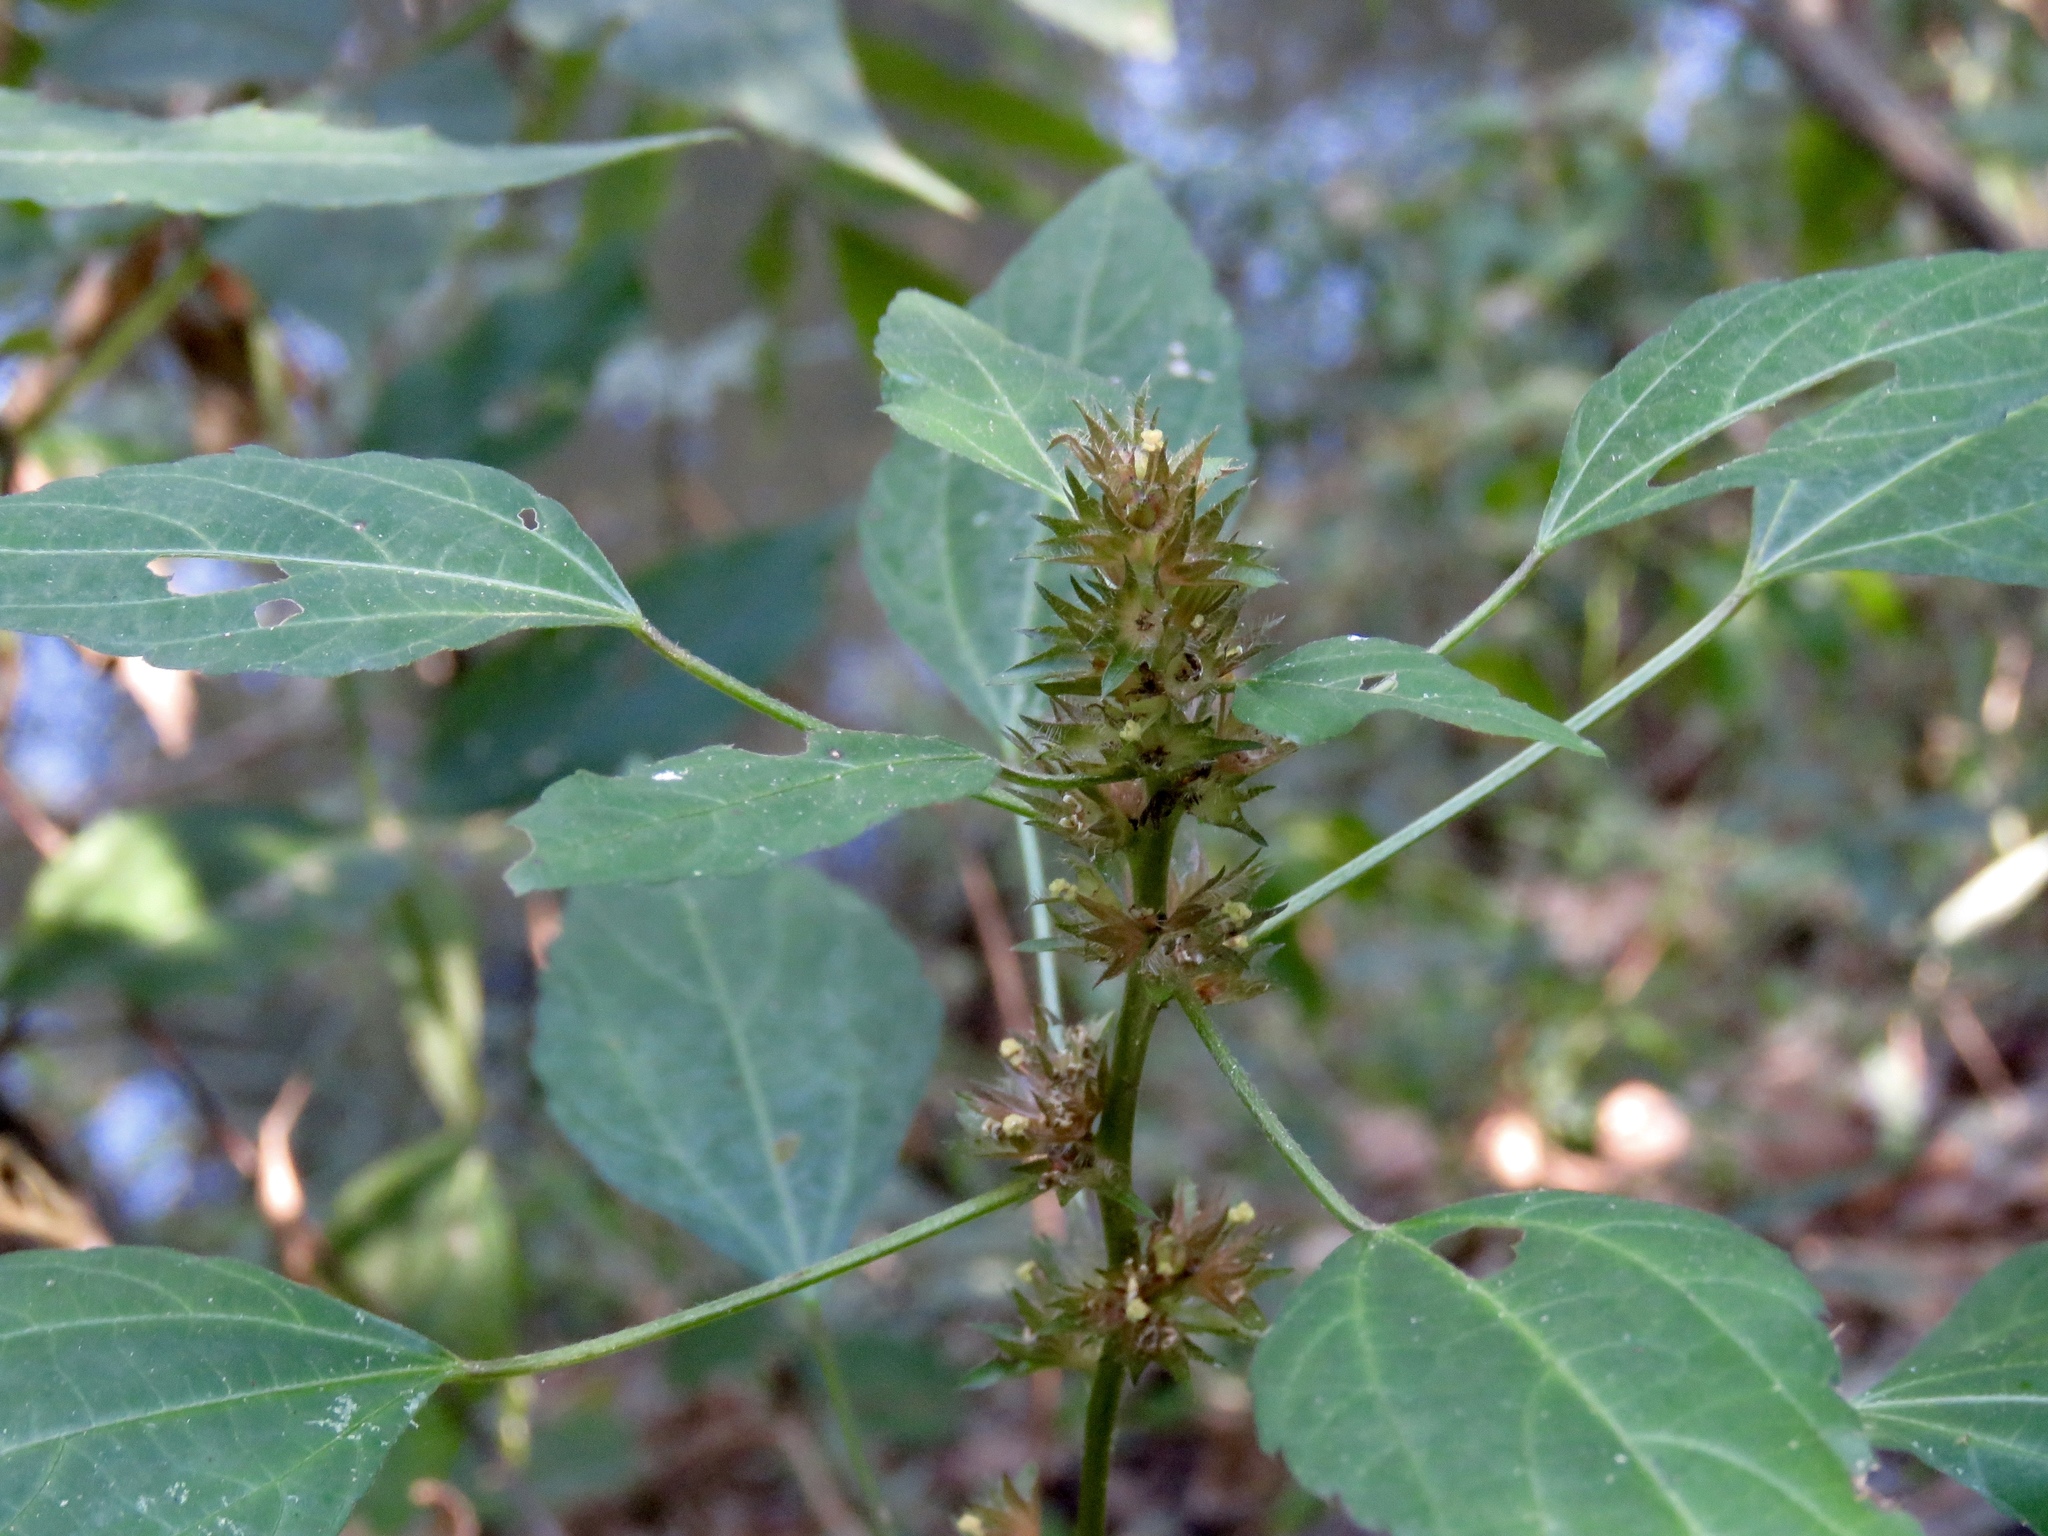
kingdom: Plantae
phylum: Tracheophyta
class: Magnoliopsida
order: Malpighiales
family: Euphorbiaceae
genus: Acalypha
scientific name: Acalypha rhomboidea
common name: Rhombic copperleaf
